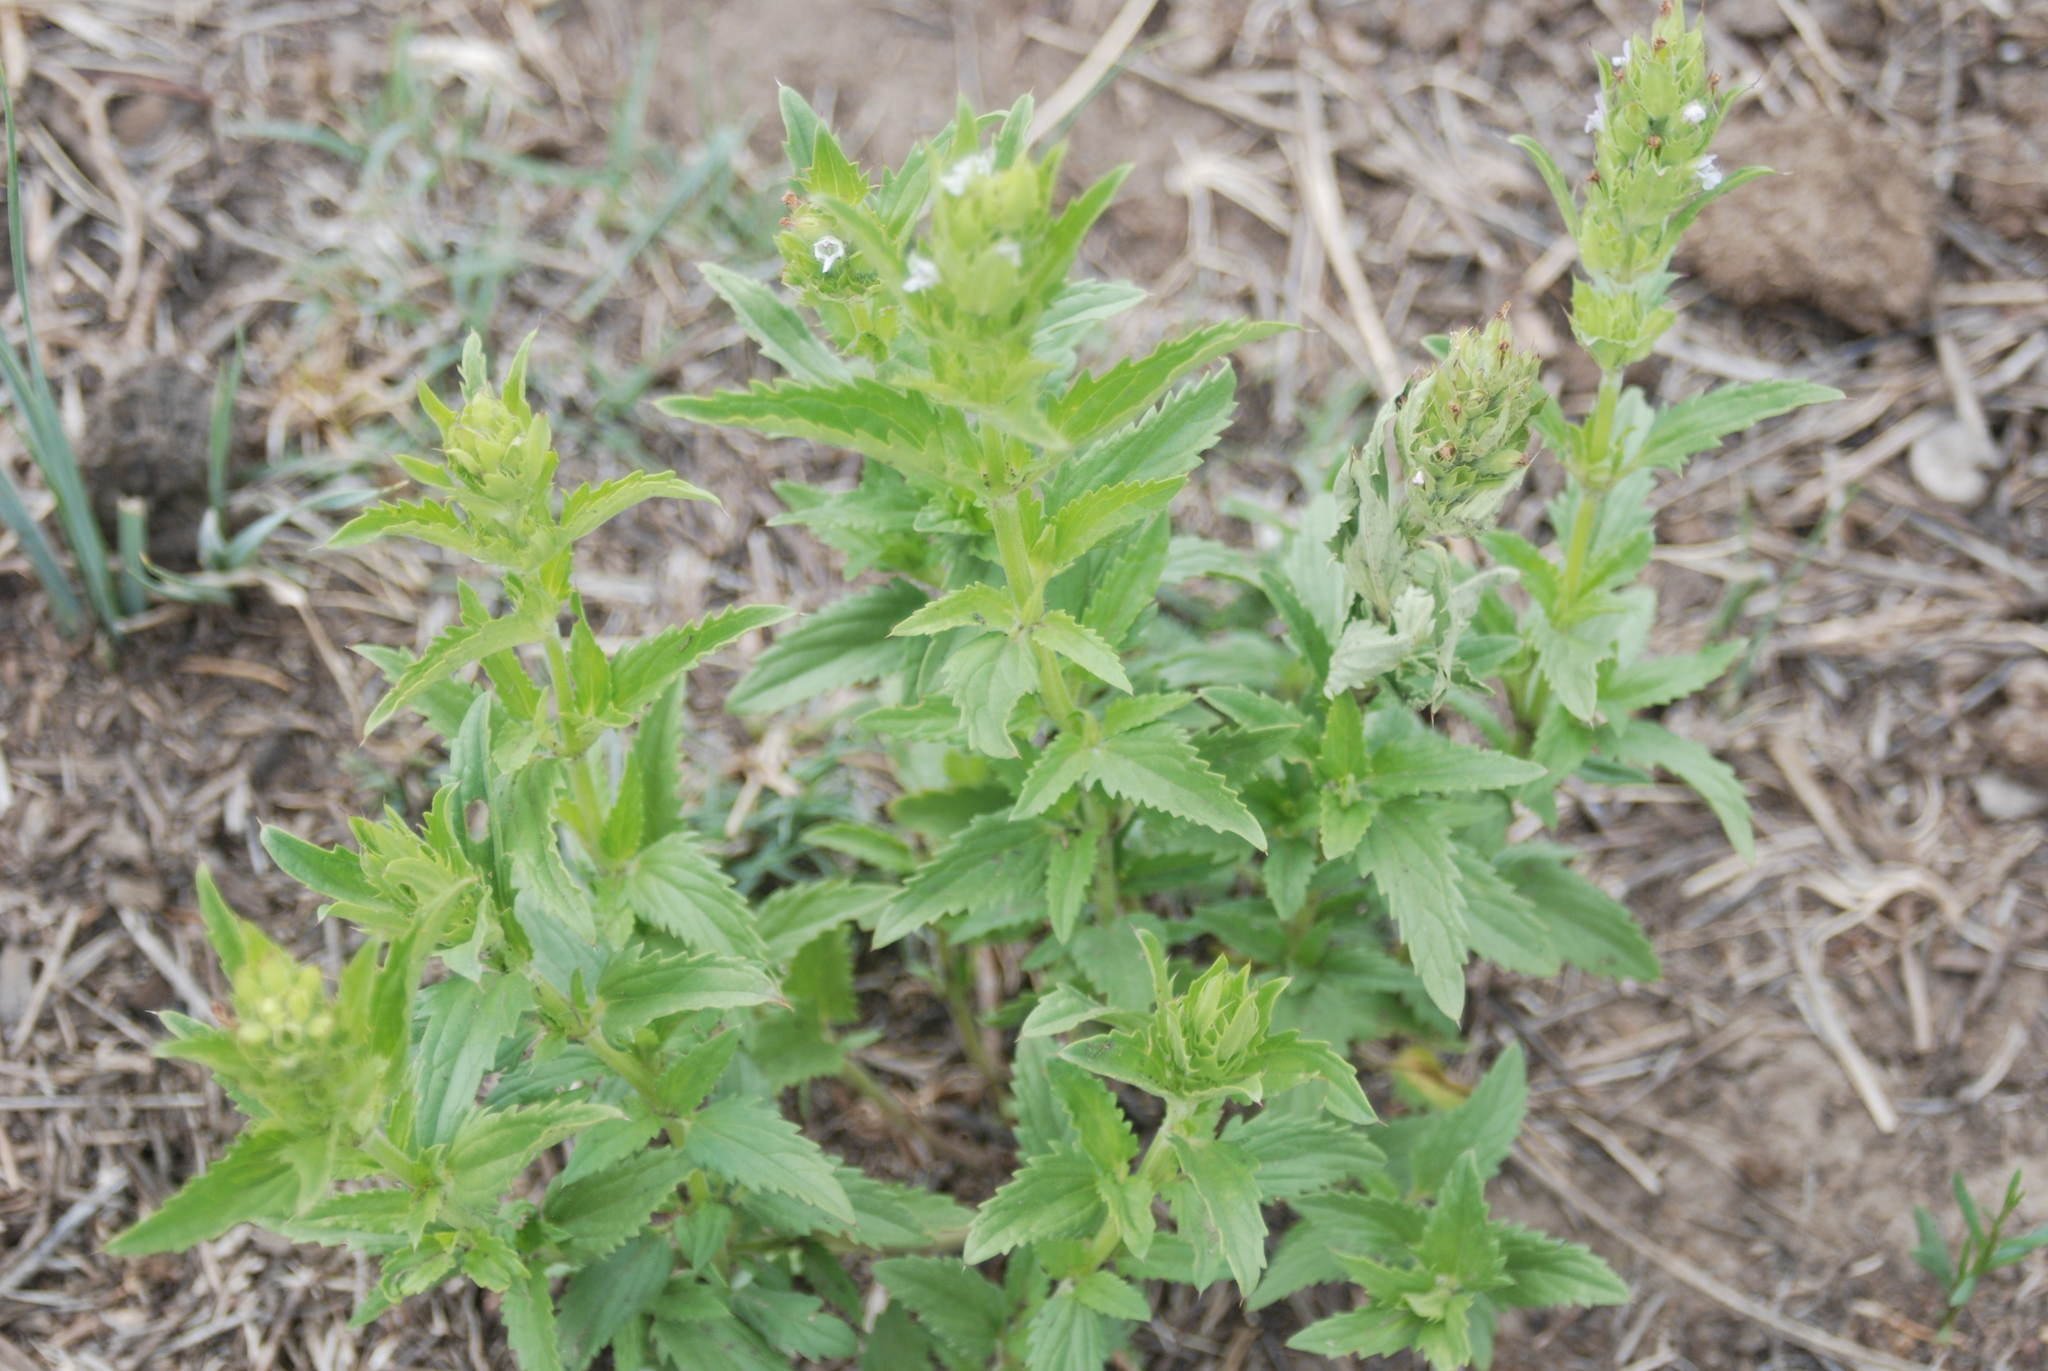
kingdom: Plantae
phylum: Tracheophyta
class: Magnoliopsida
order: Lamiales
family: Lamiaceae
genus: Dracocephalum
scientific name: Dracocephalum parviflorum
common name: American dragonhead
